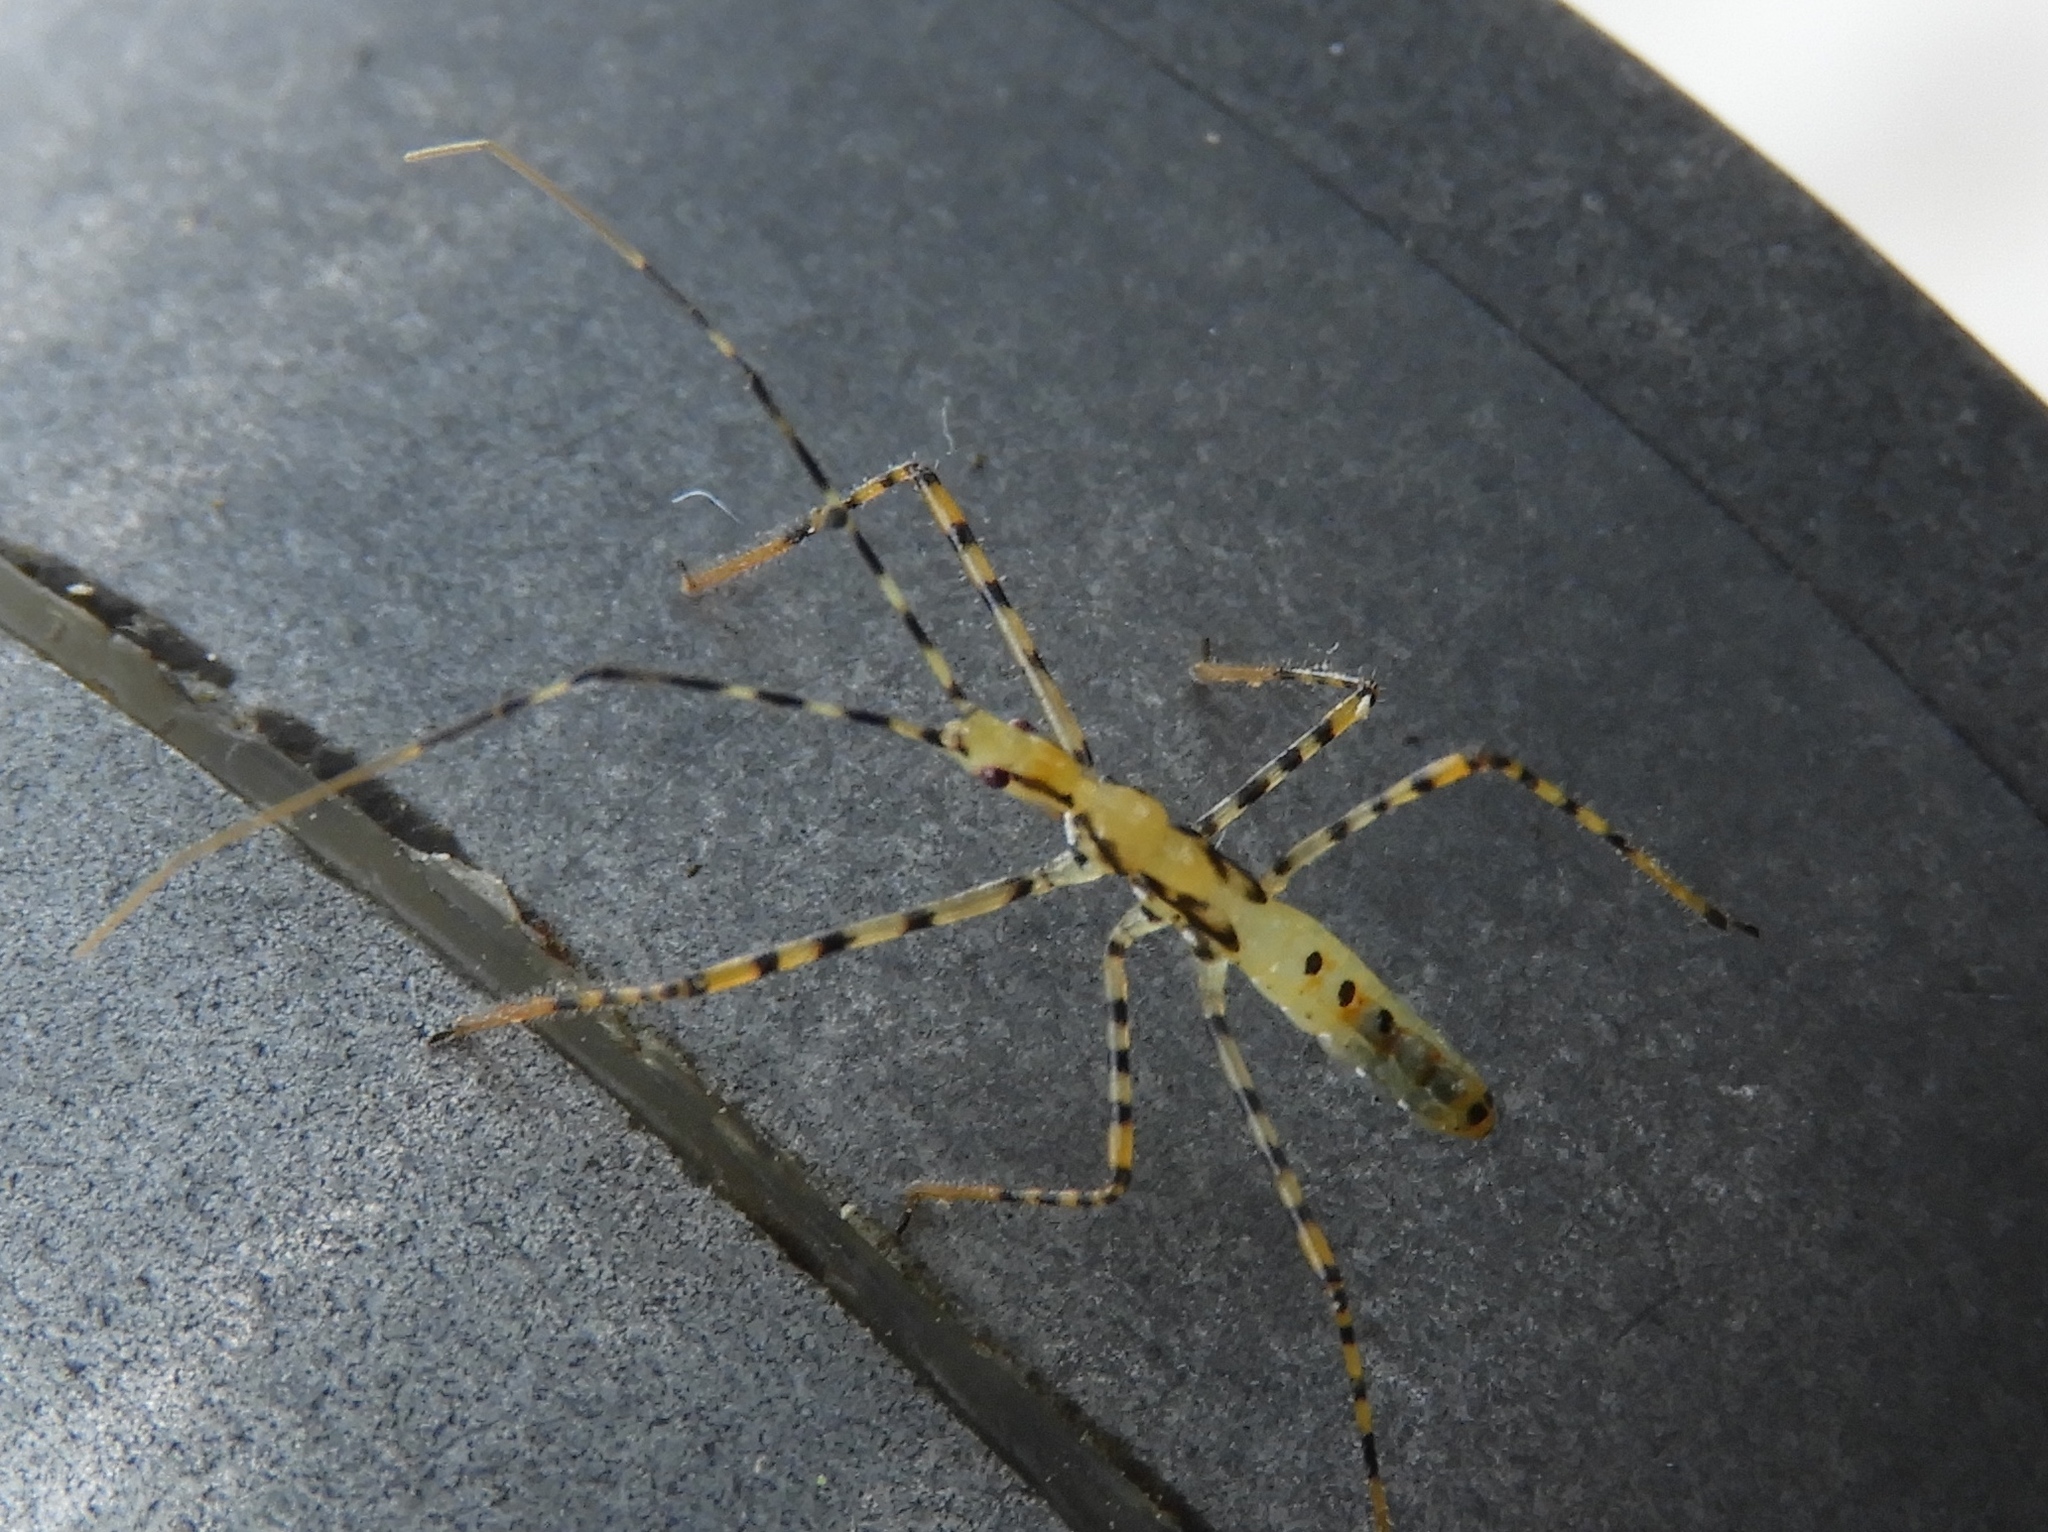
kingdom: Animalia
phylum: Arthropoda
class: Insecta
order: Hemiptera
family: Reduviidae
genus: Pselliopus
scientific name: Pselliopus
